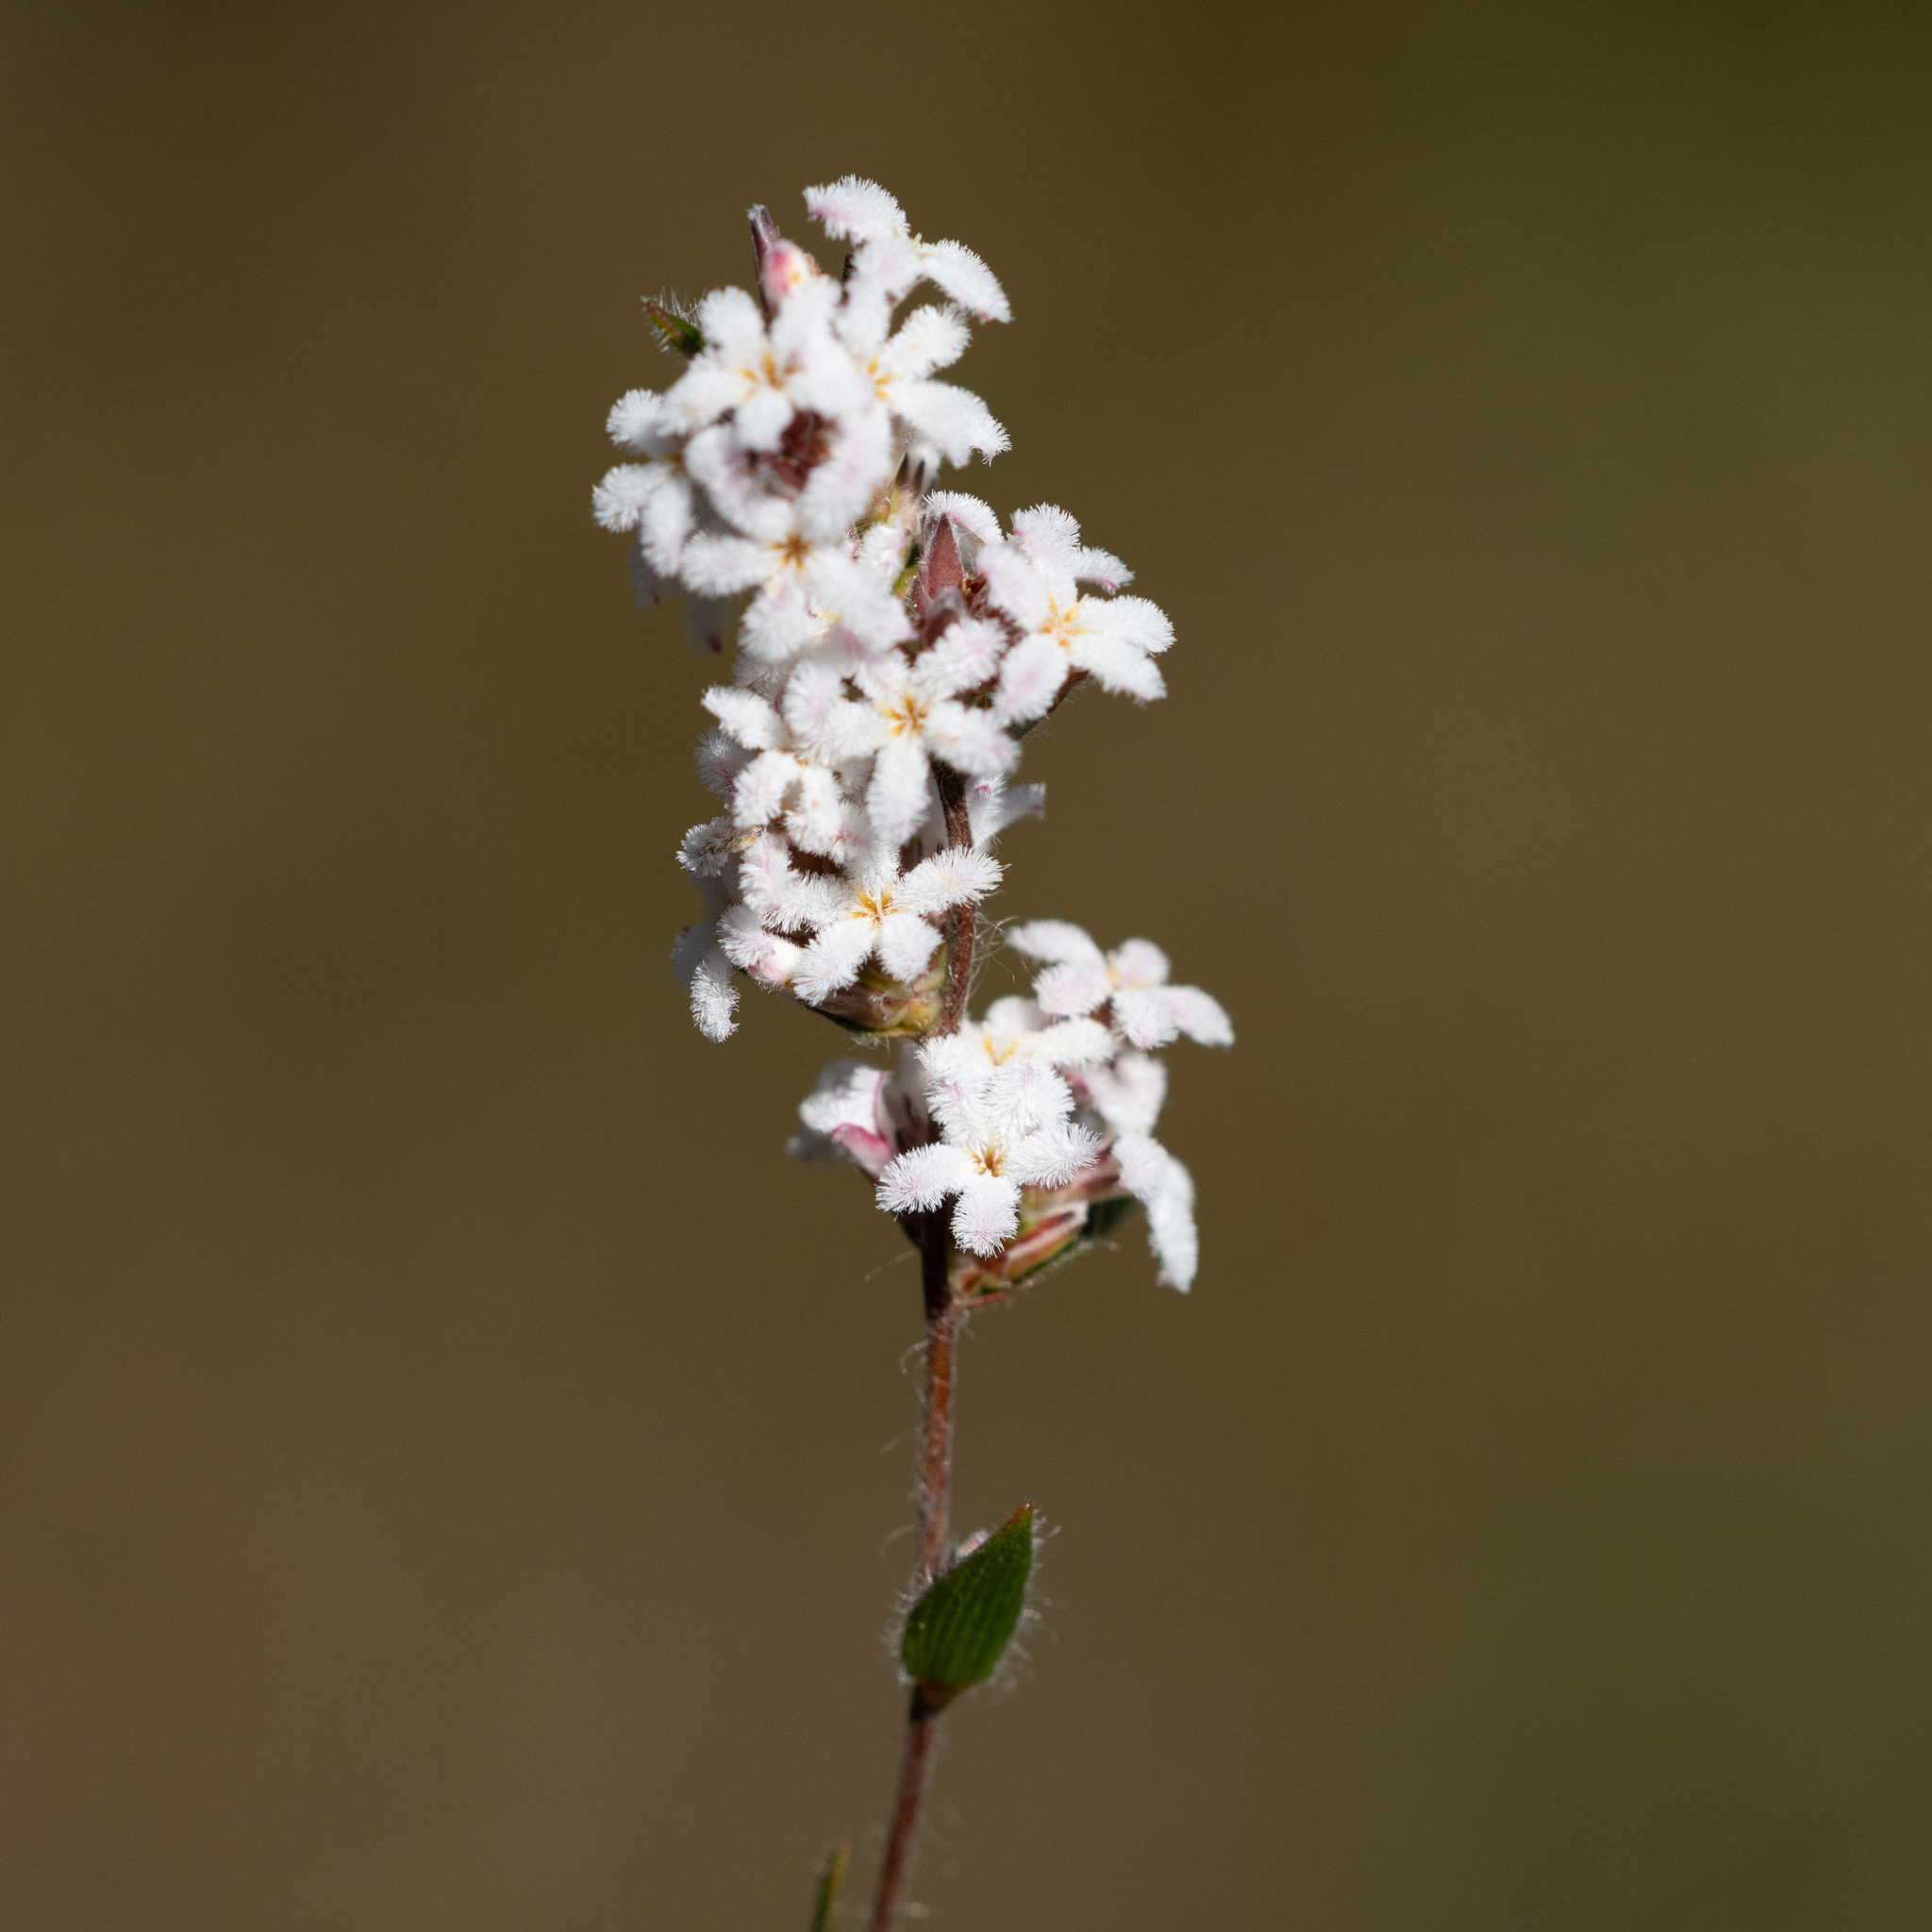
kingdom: Plantae
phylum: Tracheophyta
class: Magnoliopsida
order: Ericales
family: Ericaceae
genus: Leucopogon
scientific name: Leucopogon concurvus
